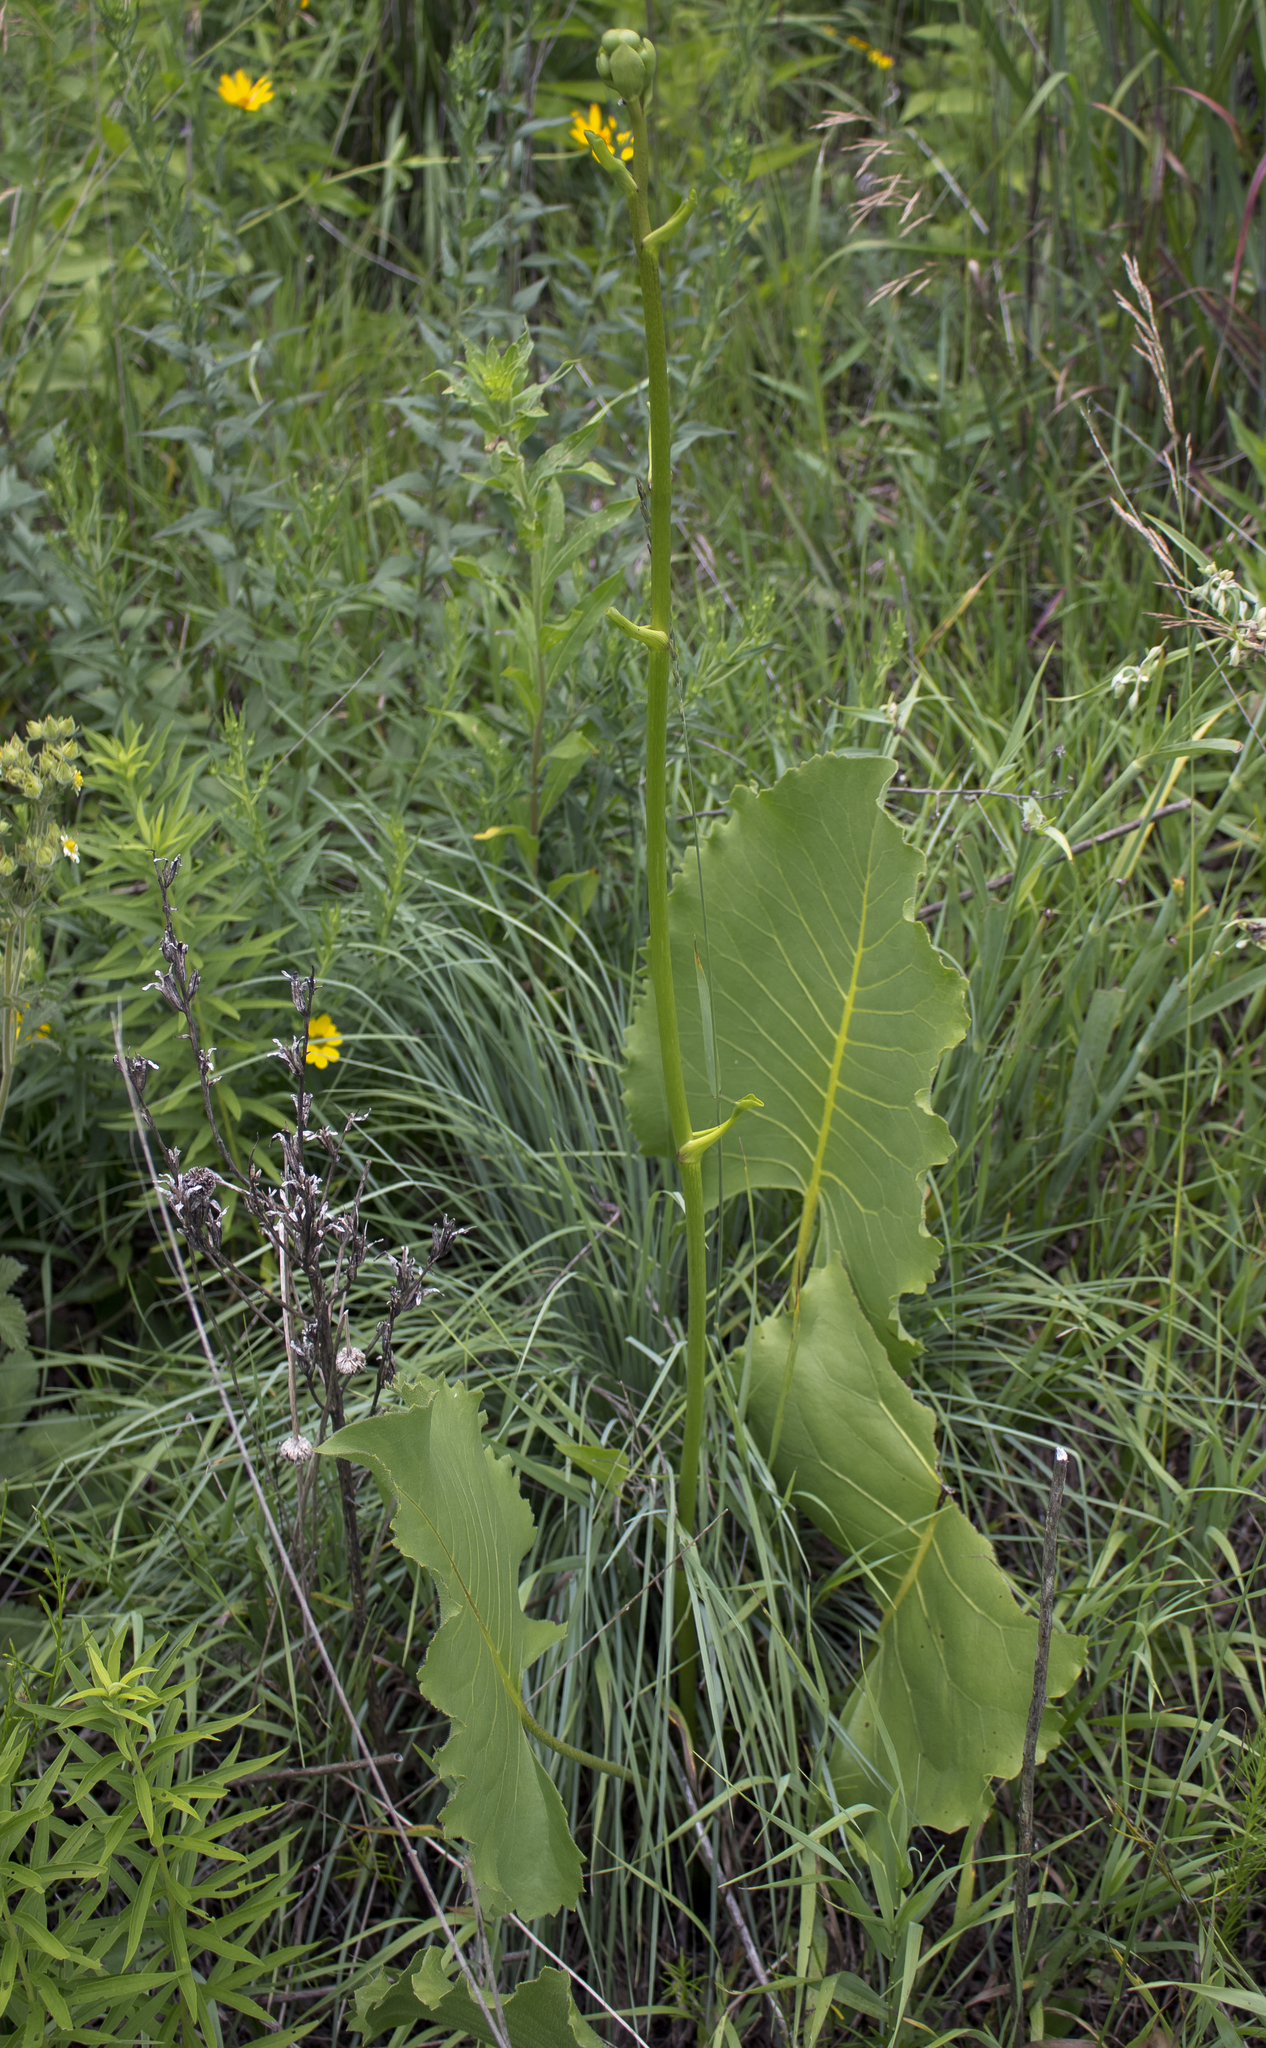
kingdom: Plantae
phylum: Tracheophyta
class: Magnoliopsida
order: Asterales
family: Asteraceae
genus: Silphium
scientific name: Silphium terebinthinaceum
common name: Basal-leaf rosinweed
